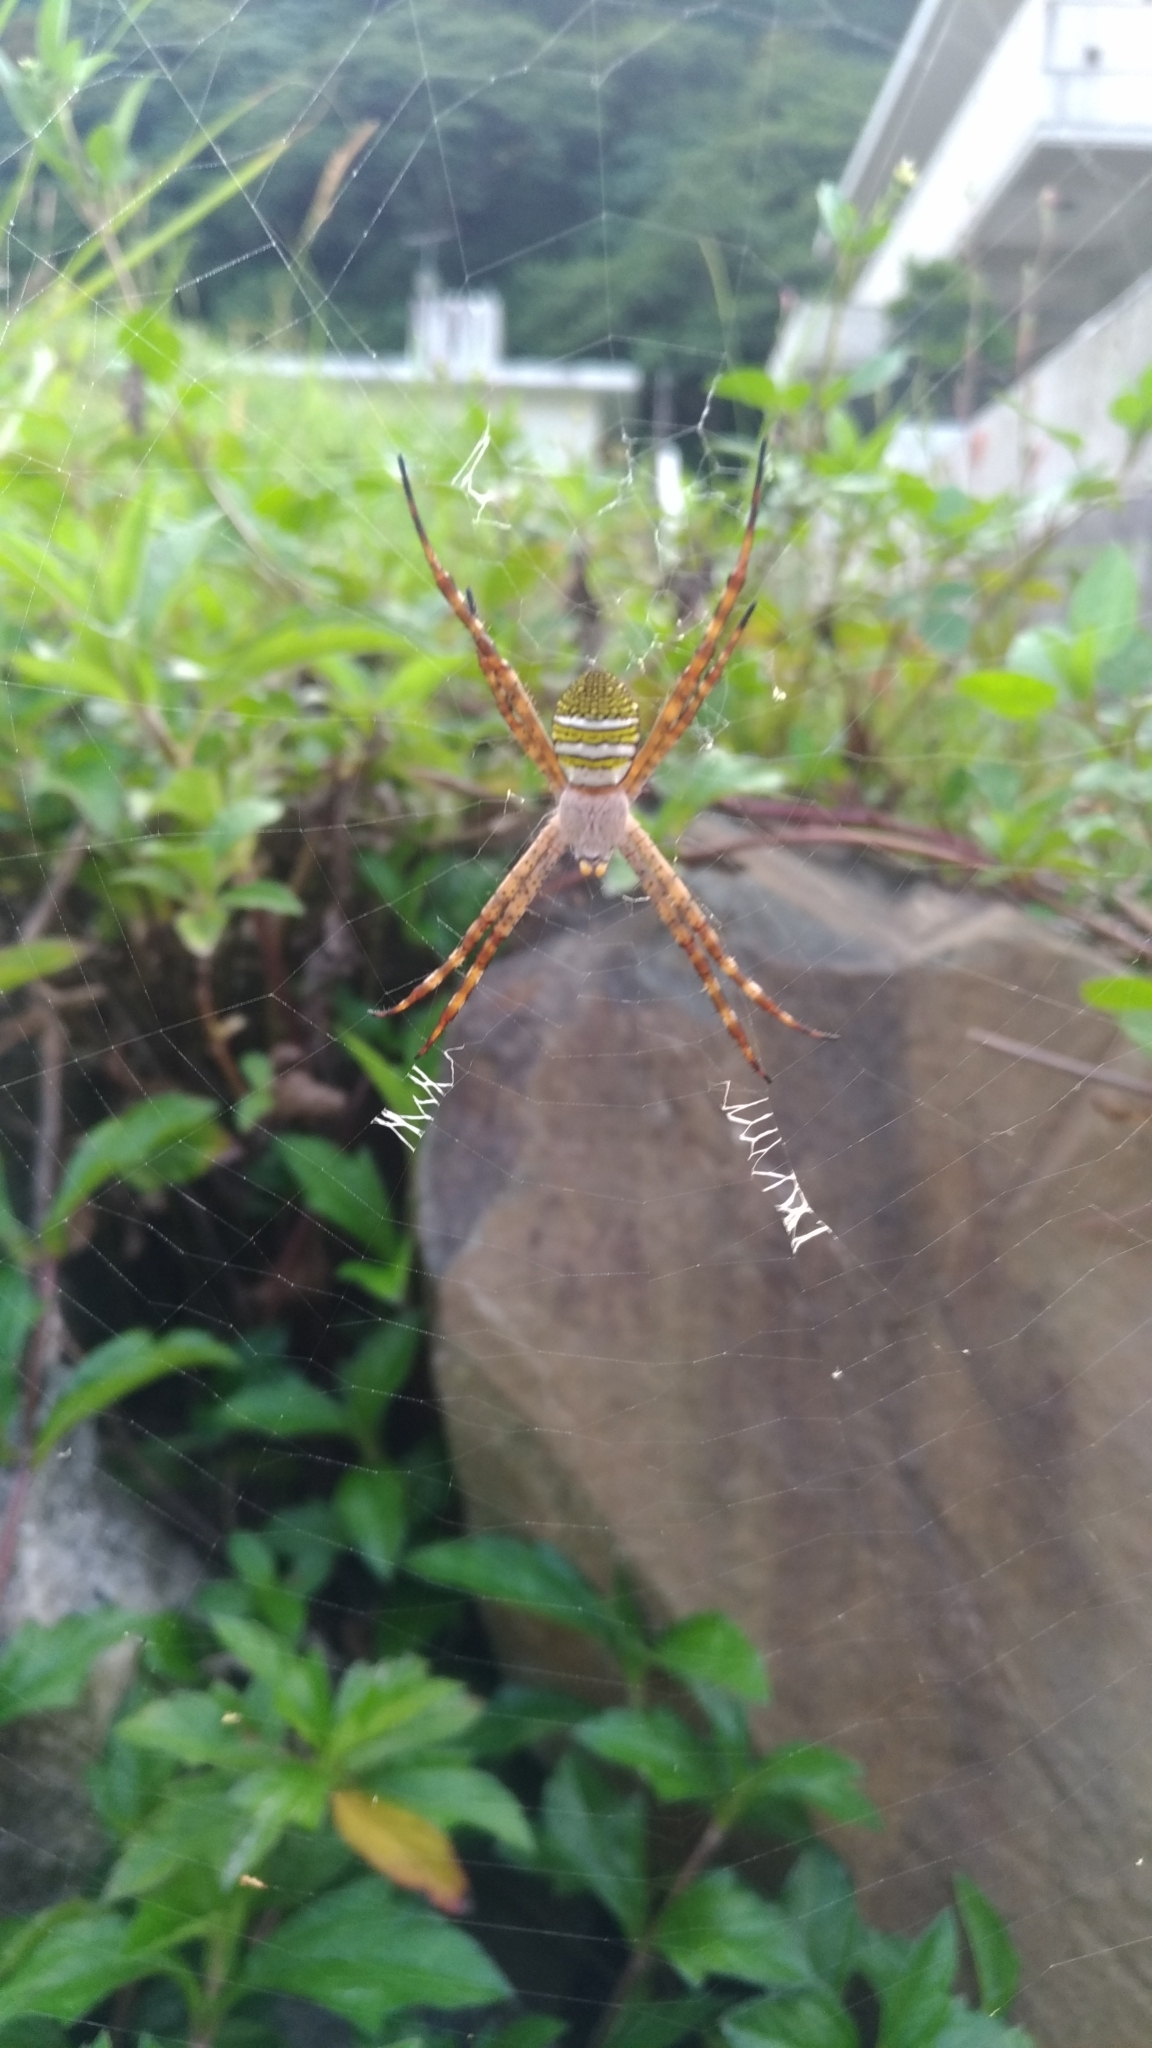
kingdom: Animalia
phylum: Arthropoda
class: Arachnida
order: Araneae
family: Araneidae
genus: Argiope
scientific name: Argiope aemula
